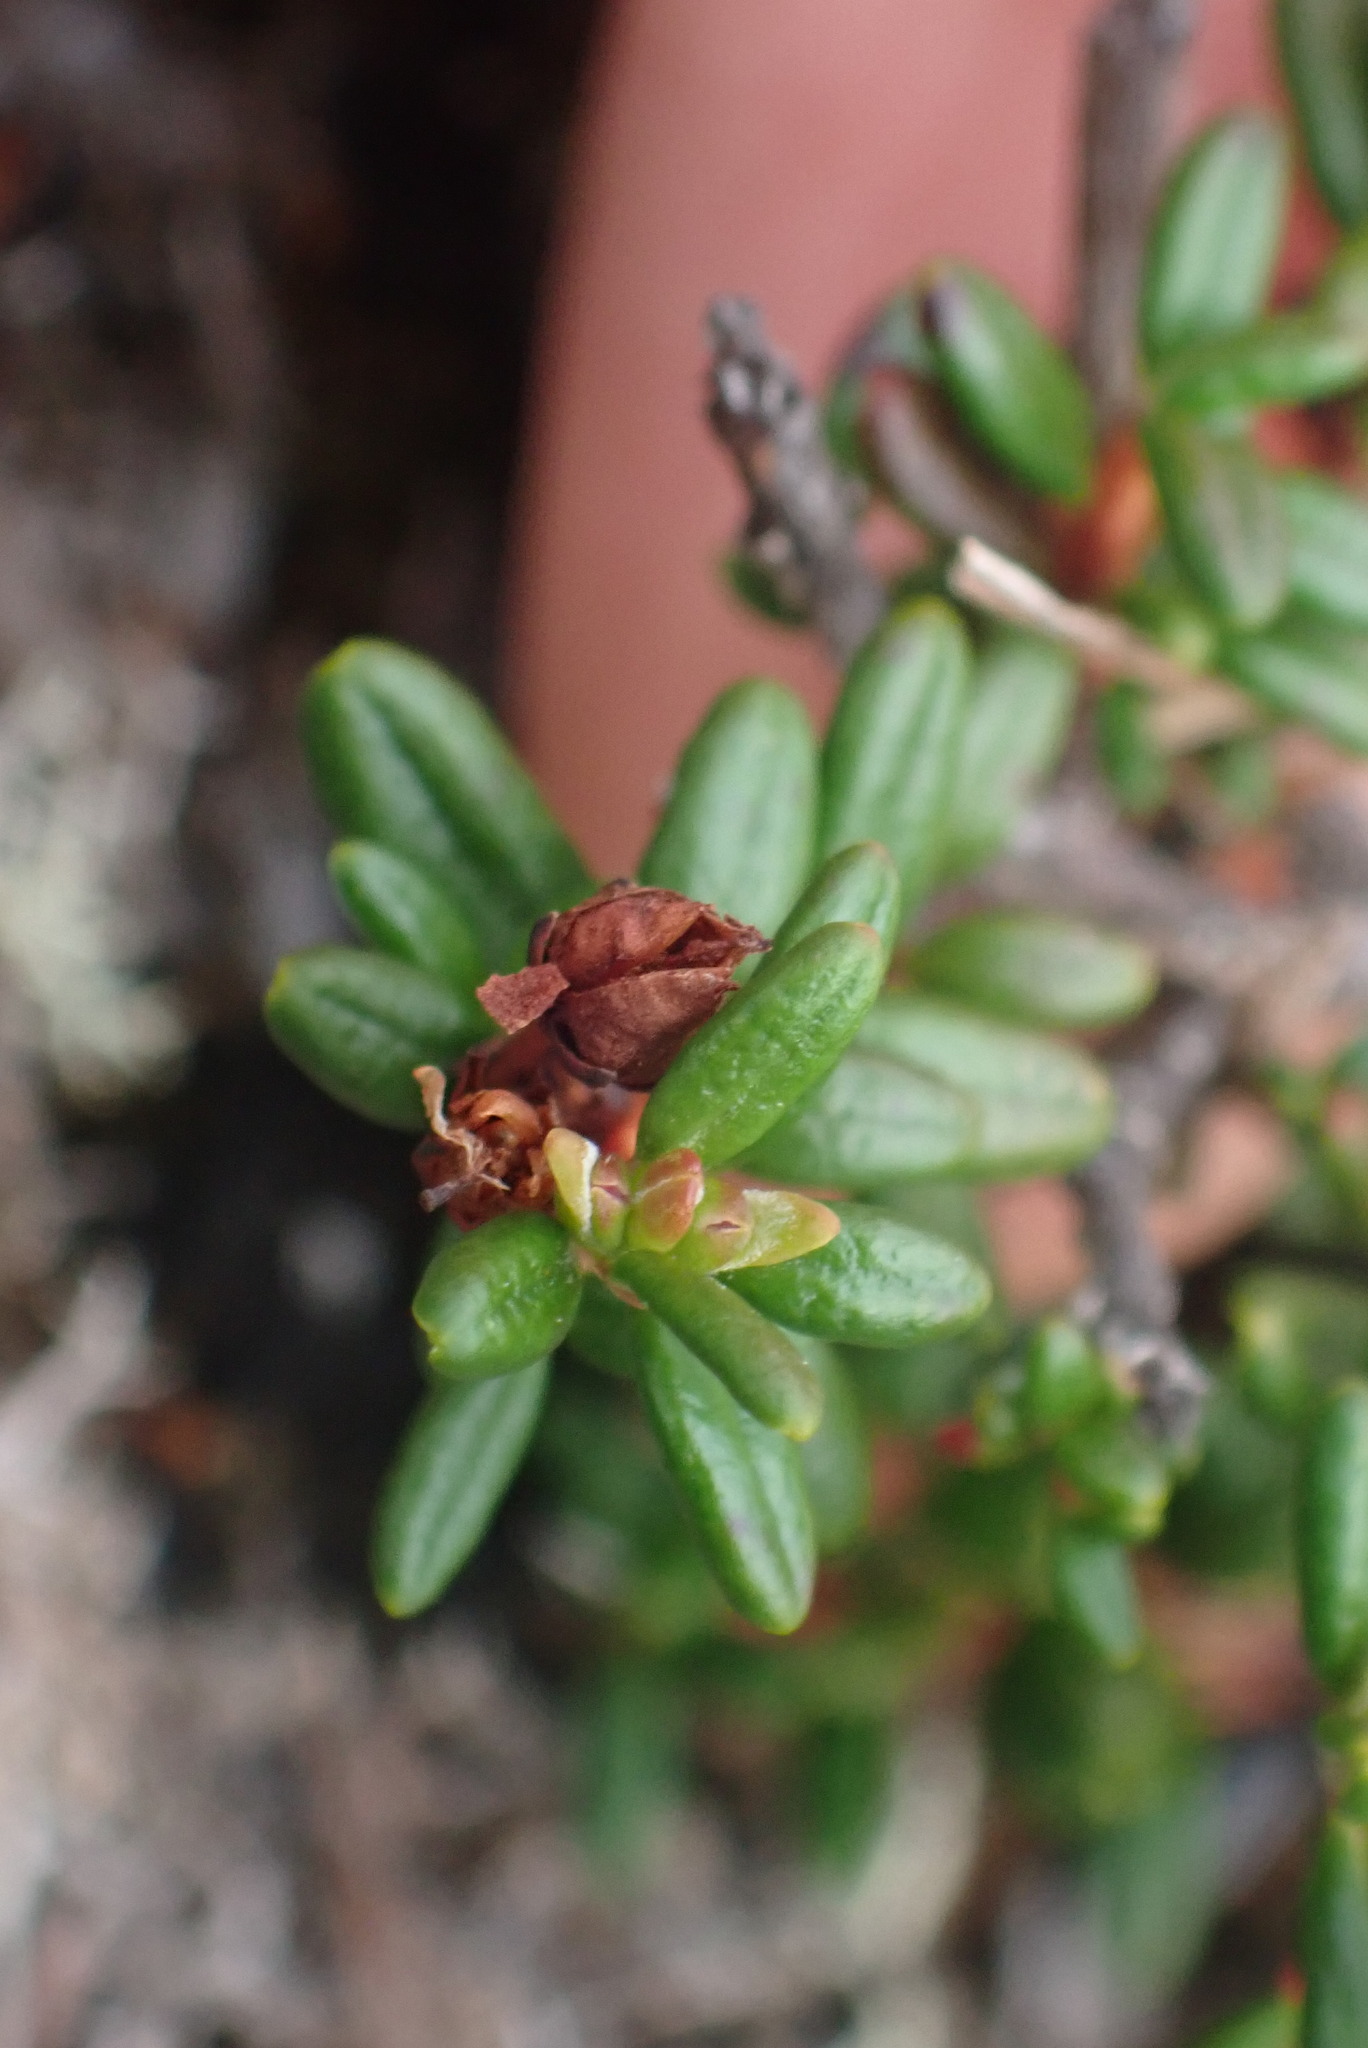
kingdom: Plantae
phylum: Tracheophyta
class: Magnoliopsida
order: Ericales
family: Ericaceae
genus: Kalmia
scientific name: Kalmia procumbens
